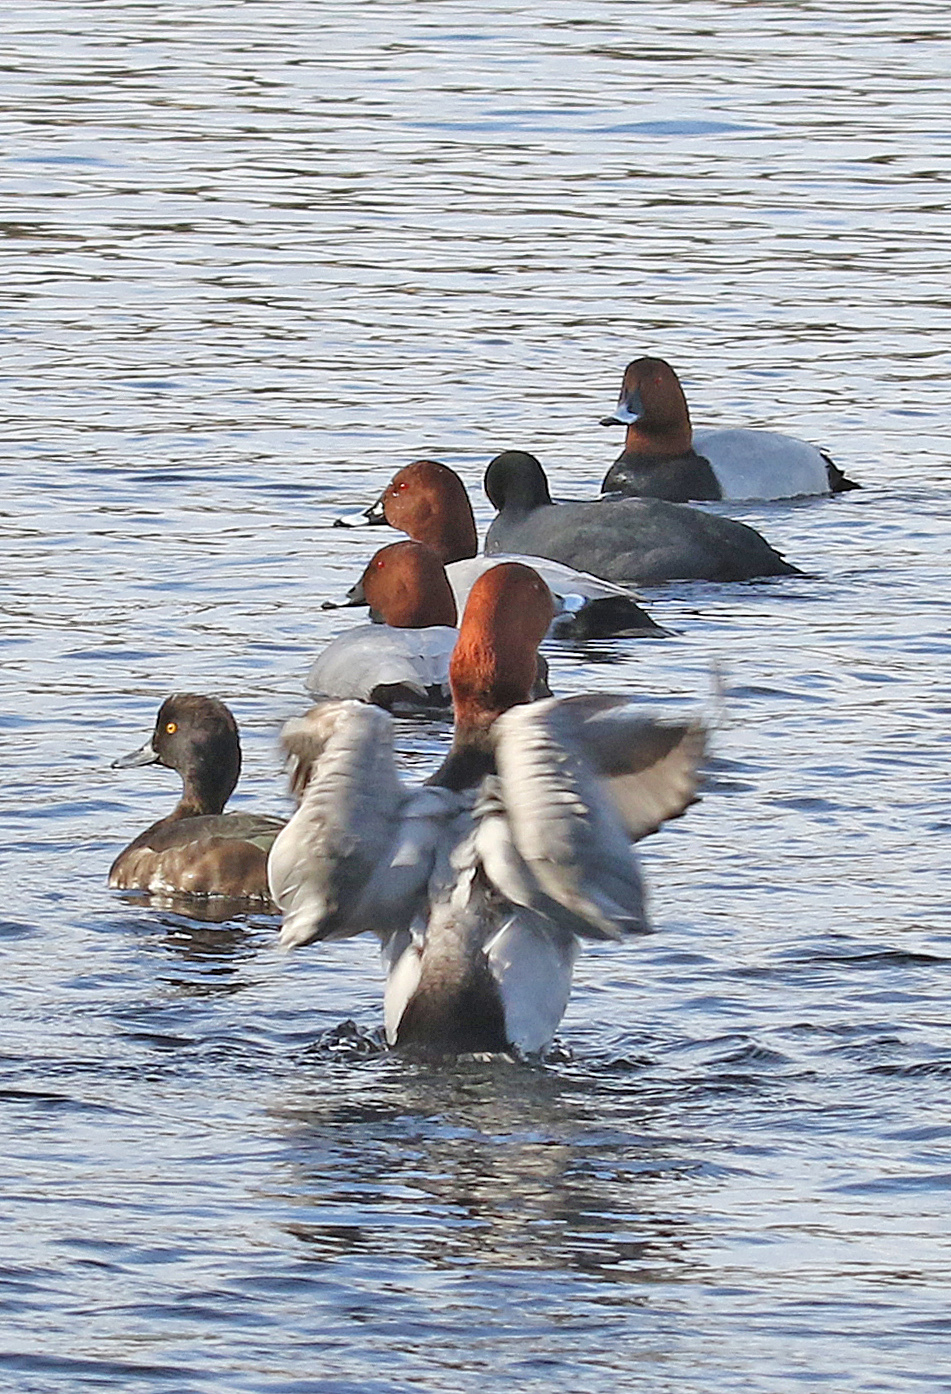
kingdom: Animalia
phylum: Chordata
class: Aves
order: Anseriformes
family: Anatidae
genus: Aythya
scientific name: Aythya ferina
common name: Common pochard
